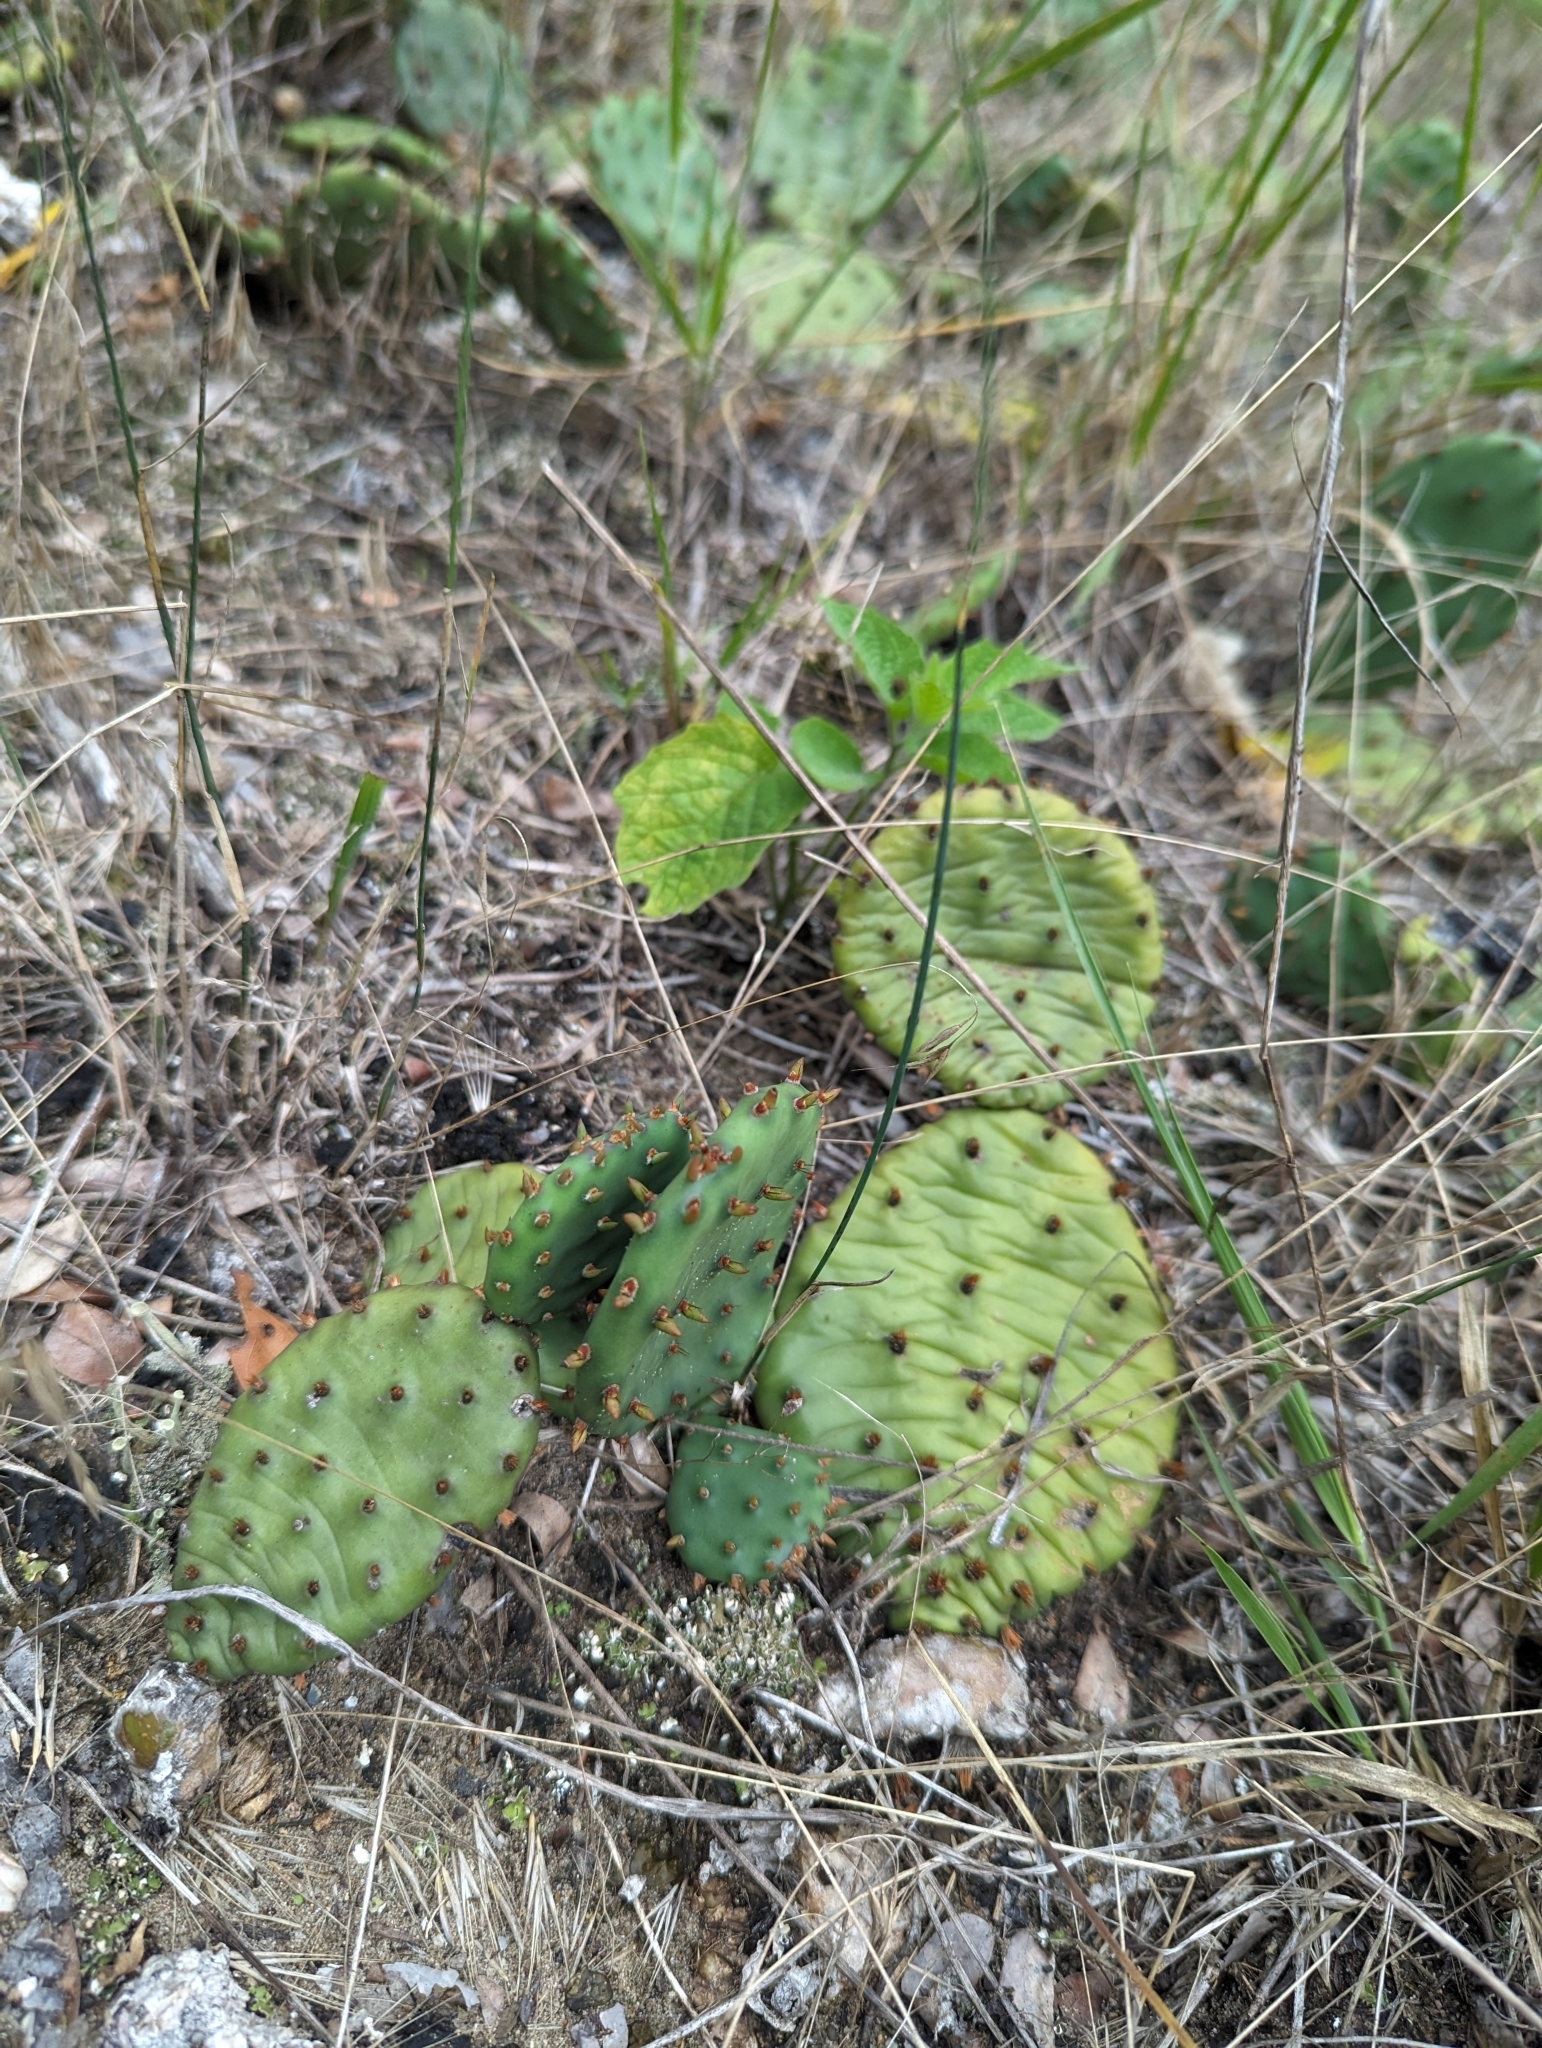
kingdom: Plantae
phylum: Tracheophyta
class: Magnoliopsida
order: Caryophyllales
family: Cactaceae
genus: Opuntia
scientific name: Opuntia humifusa
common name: Eastern prickly-pear
